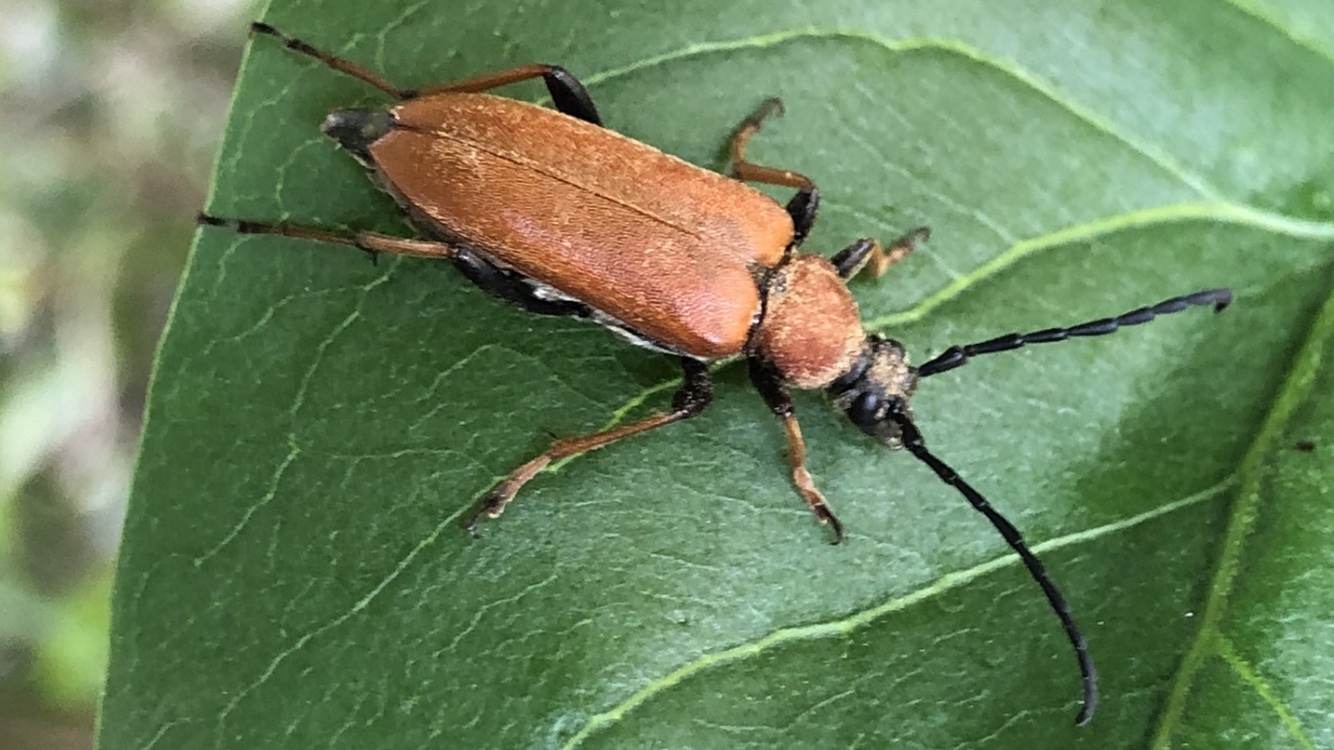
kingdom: Animalia
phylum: Arthropoda
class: Insecta
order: Coleoptera
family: Cerambycidae
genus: Stictoleptura
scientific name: Stictoleptura rubra
